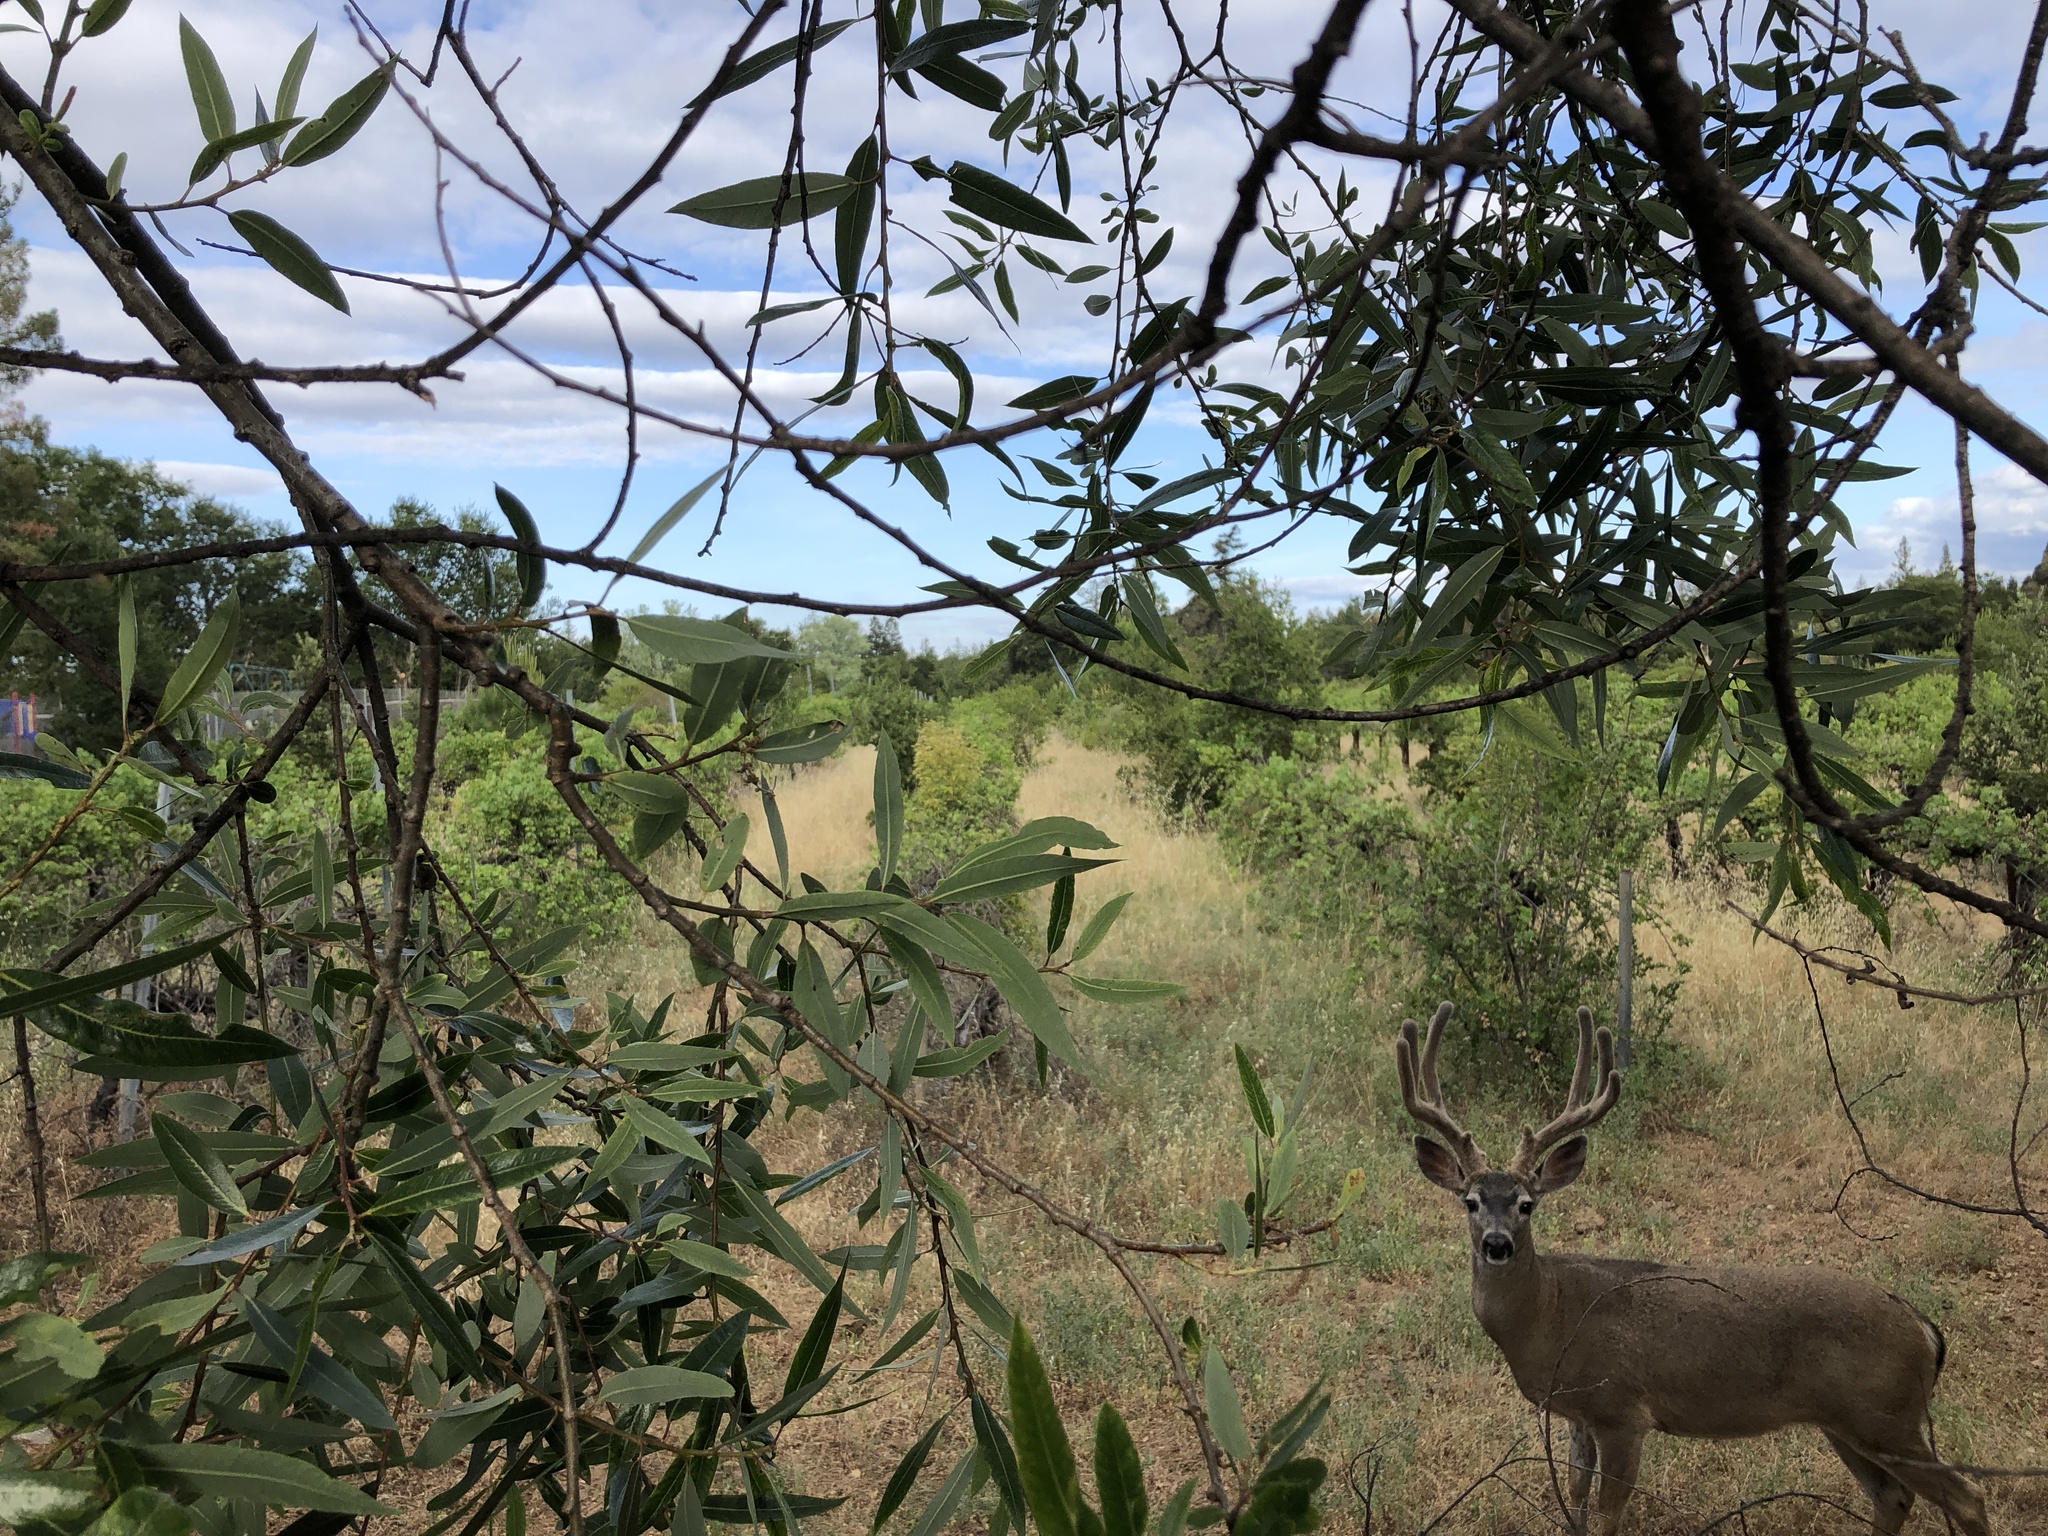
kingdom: Animalia
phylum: Chordata
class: Mammalia
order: Artiodactyla
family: Cervidae
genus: Odocoileus
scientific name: Odocoileus hemionus
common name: Mule deer
